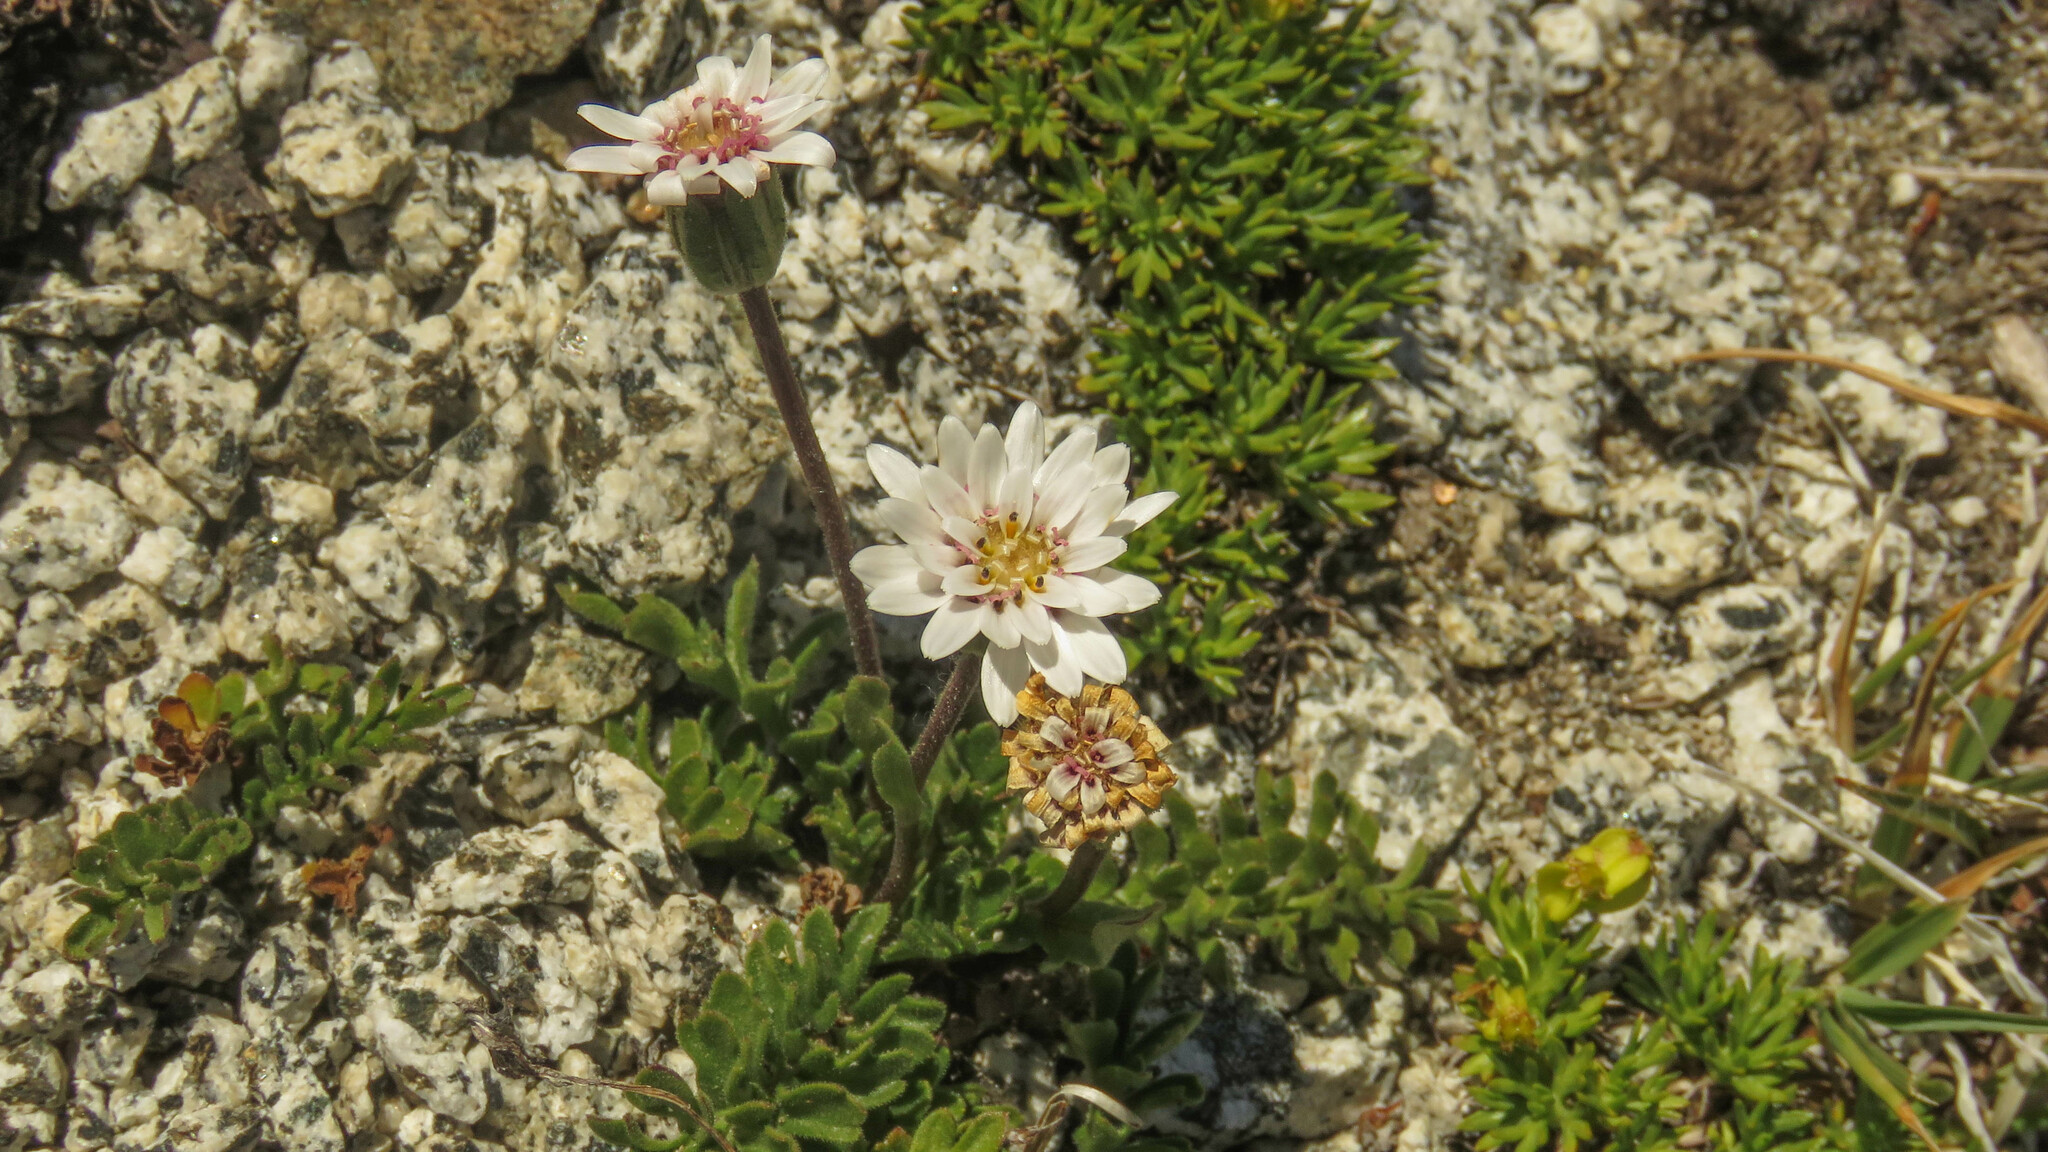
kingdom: Plantae
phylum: Tracheophyta
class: Magnoliopsida
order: Asterales
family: Asteraceae
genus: Leucheria
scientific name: Leucheria millefolium
